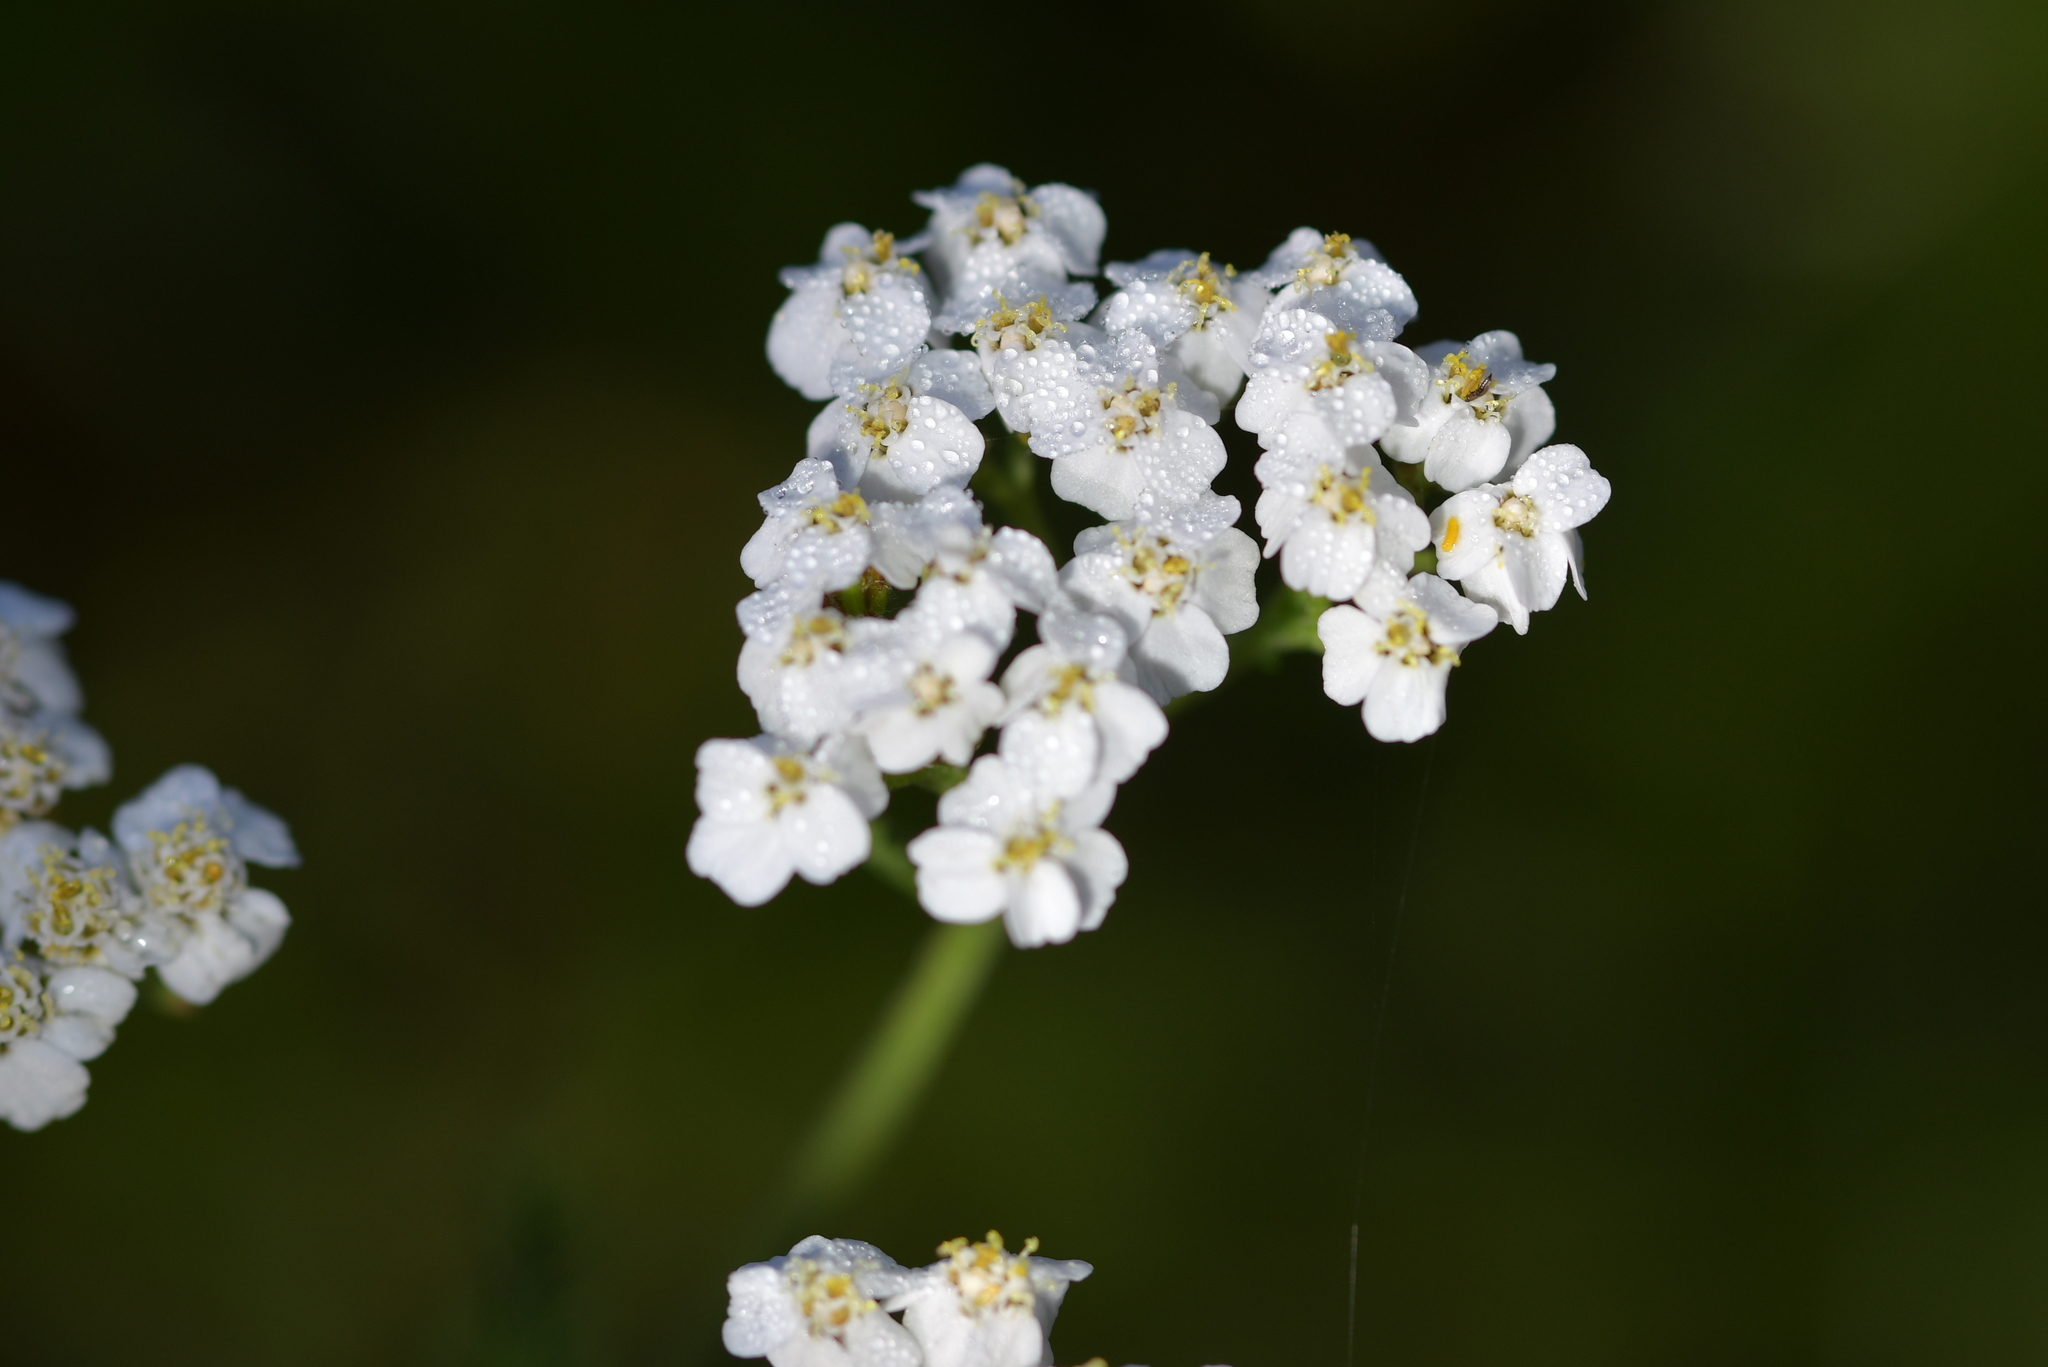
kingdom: Plantae
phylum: Tracheophyta
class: Magnoliopsida
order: Asterales
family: Asteraceae
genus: Achillea
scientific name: Achillea millefolium
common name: Yarrow
